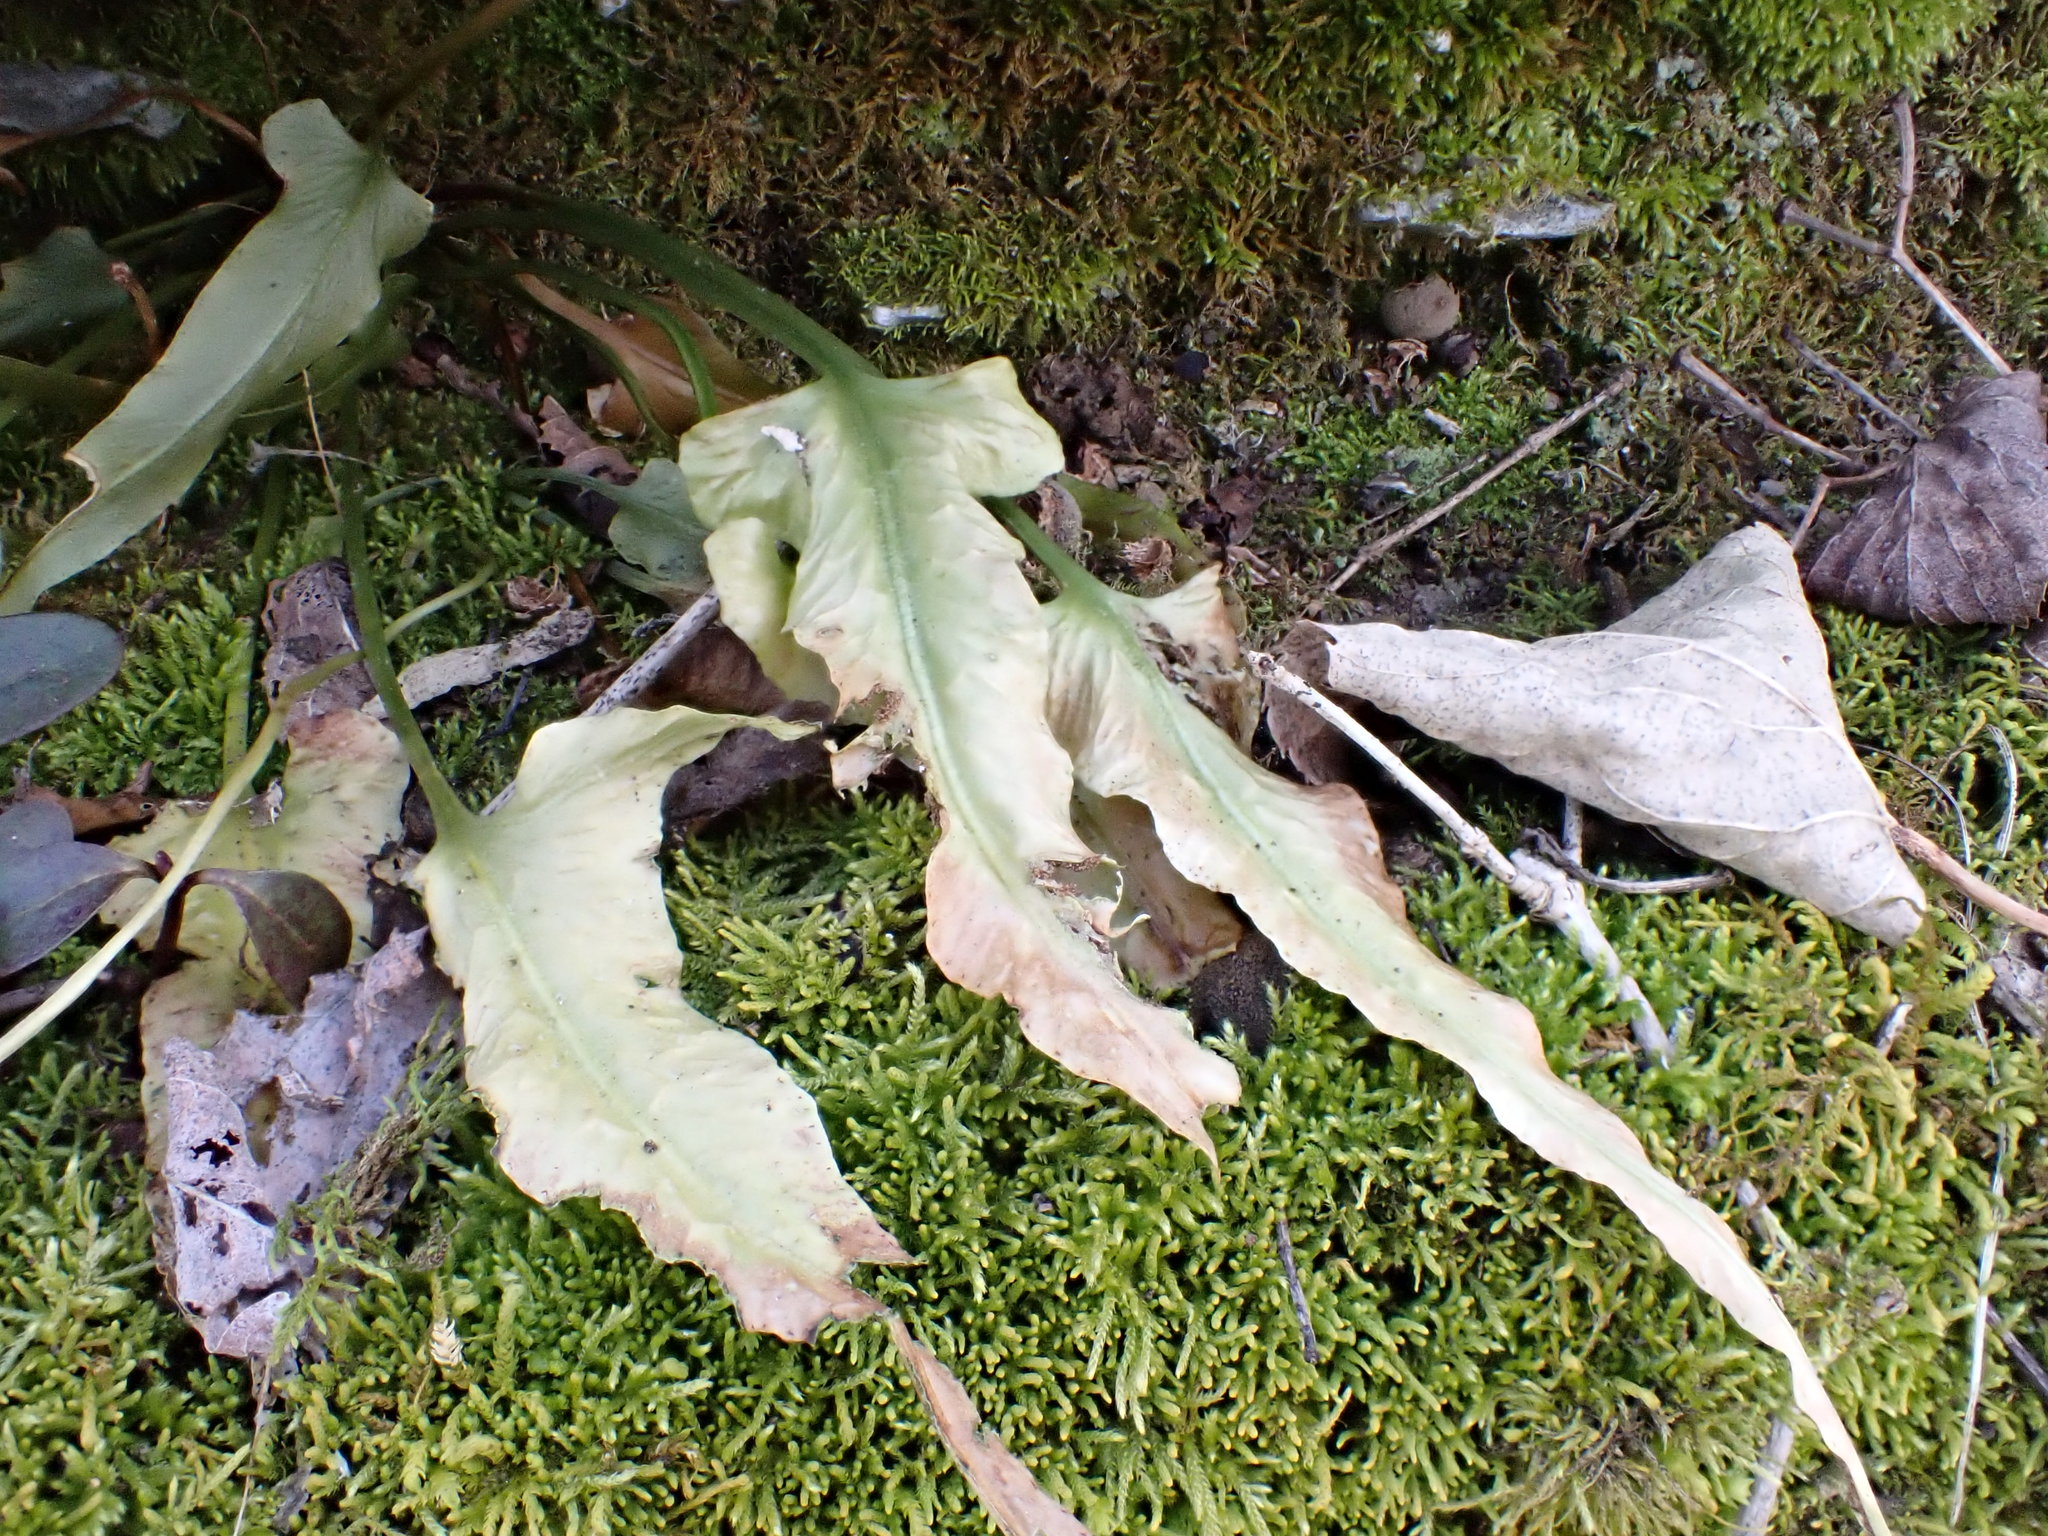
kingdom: Plantae
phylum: Tracheophyta
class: Polypodiopsida
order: Polypodiales
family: Aspleniaceae
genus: Asplenium
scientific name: Asplenium rhizophyllum
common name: Walking fern
